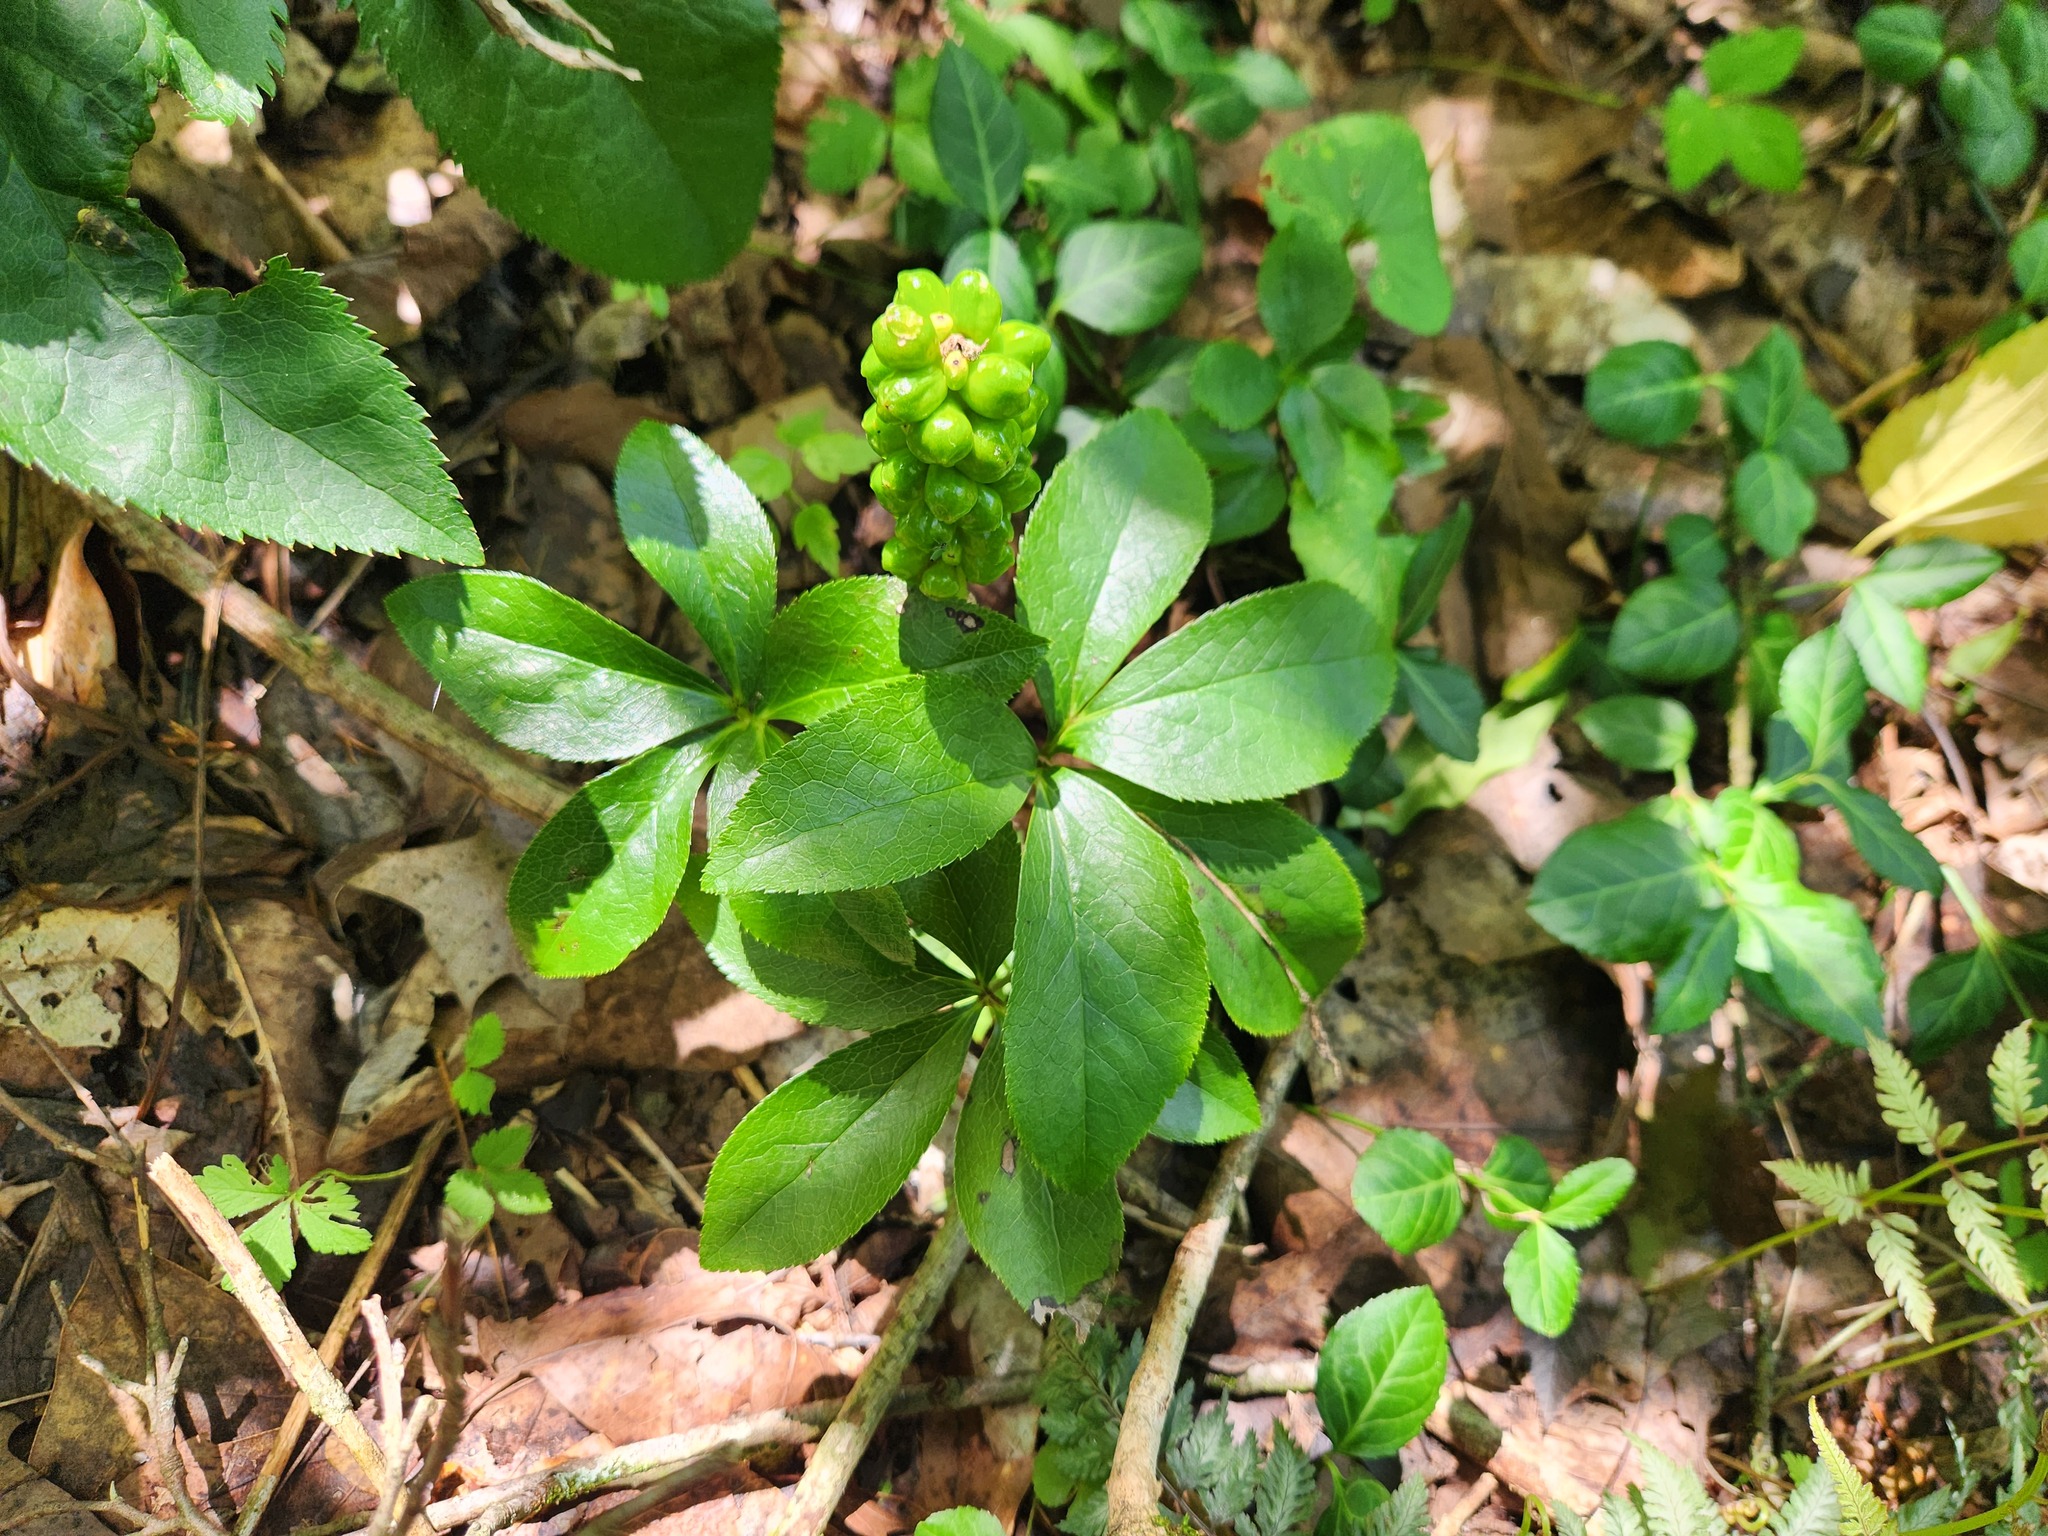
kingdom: Plantae
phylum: Tracheophyta
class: Liliopsida
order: Alismatales
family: Araceae
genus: Arum
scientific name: Arum italicum
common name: Italian lords-and-ladies
